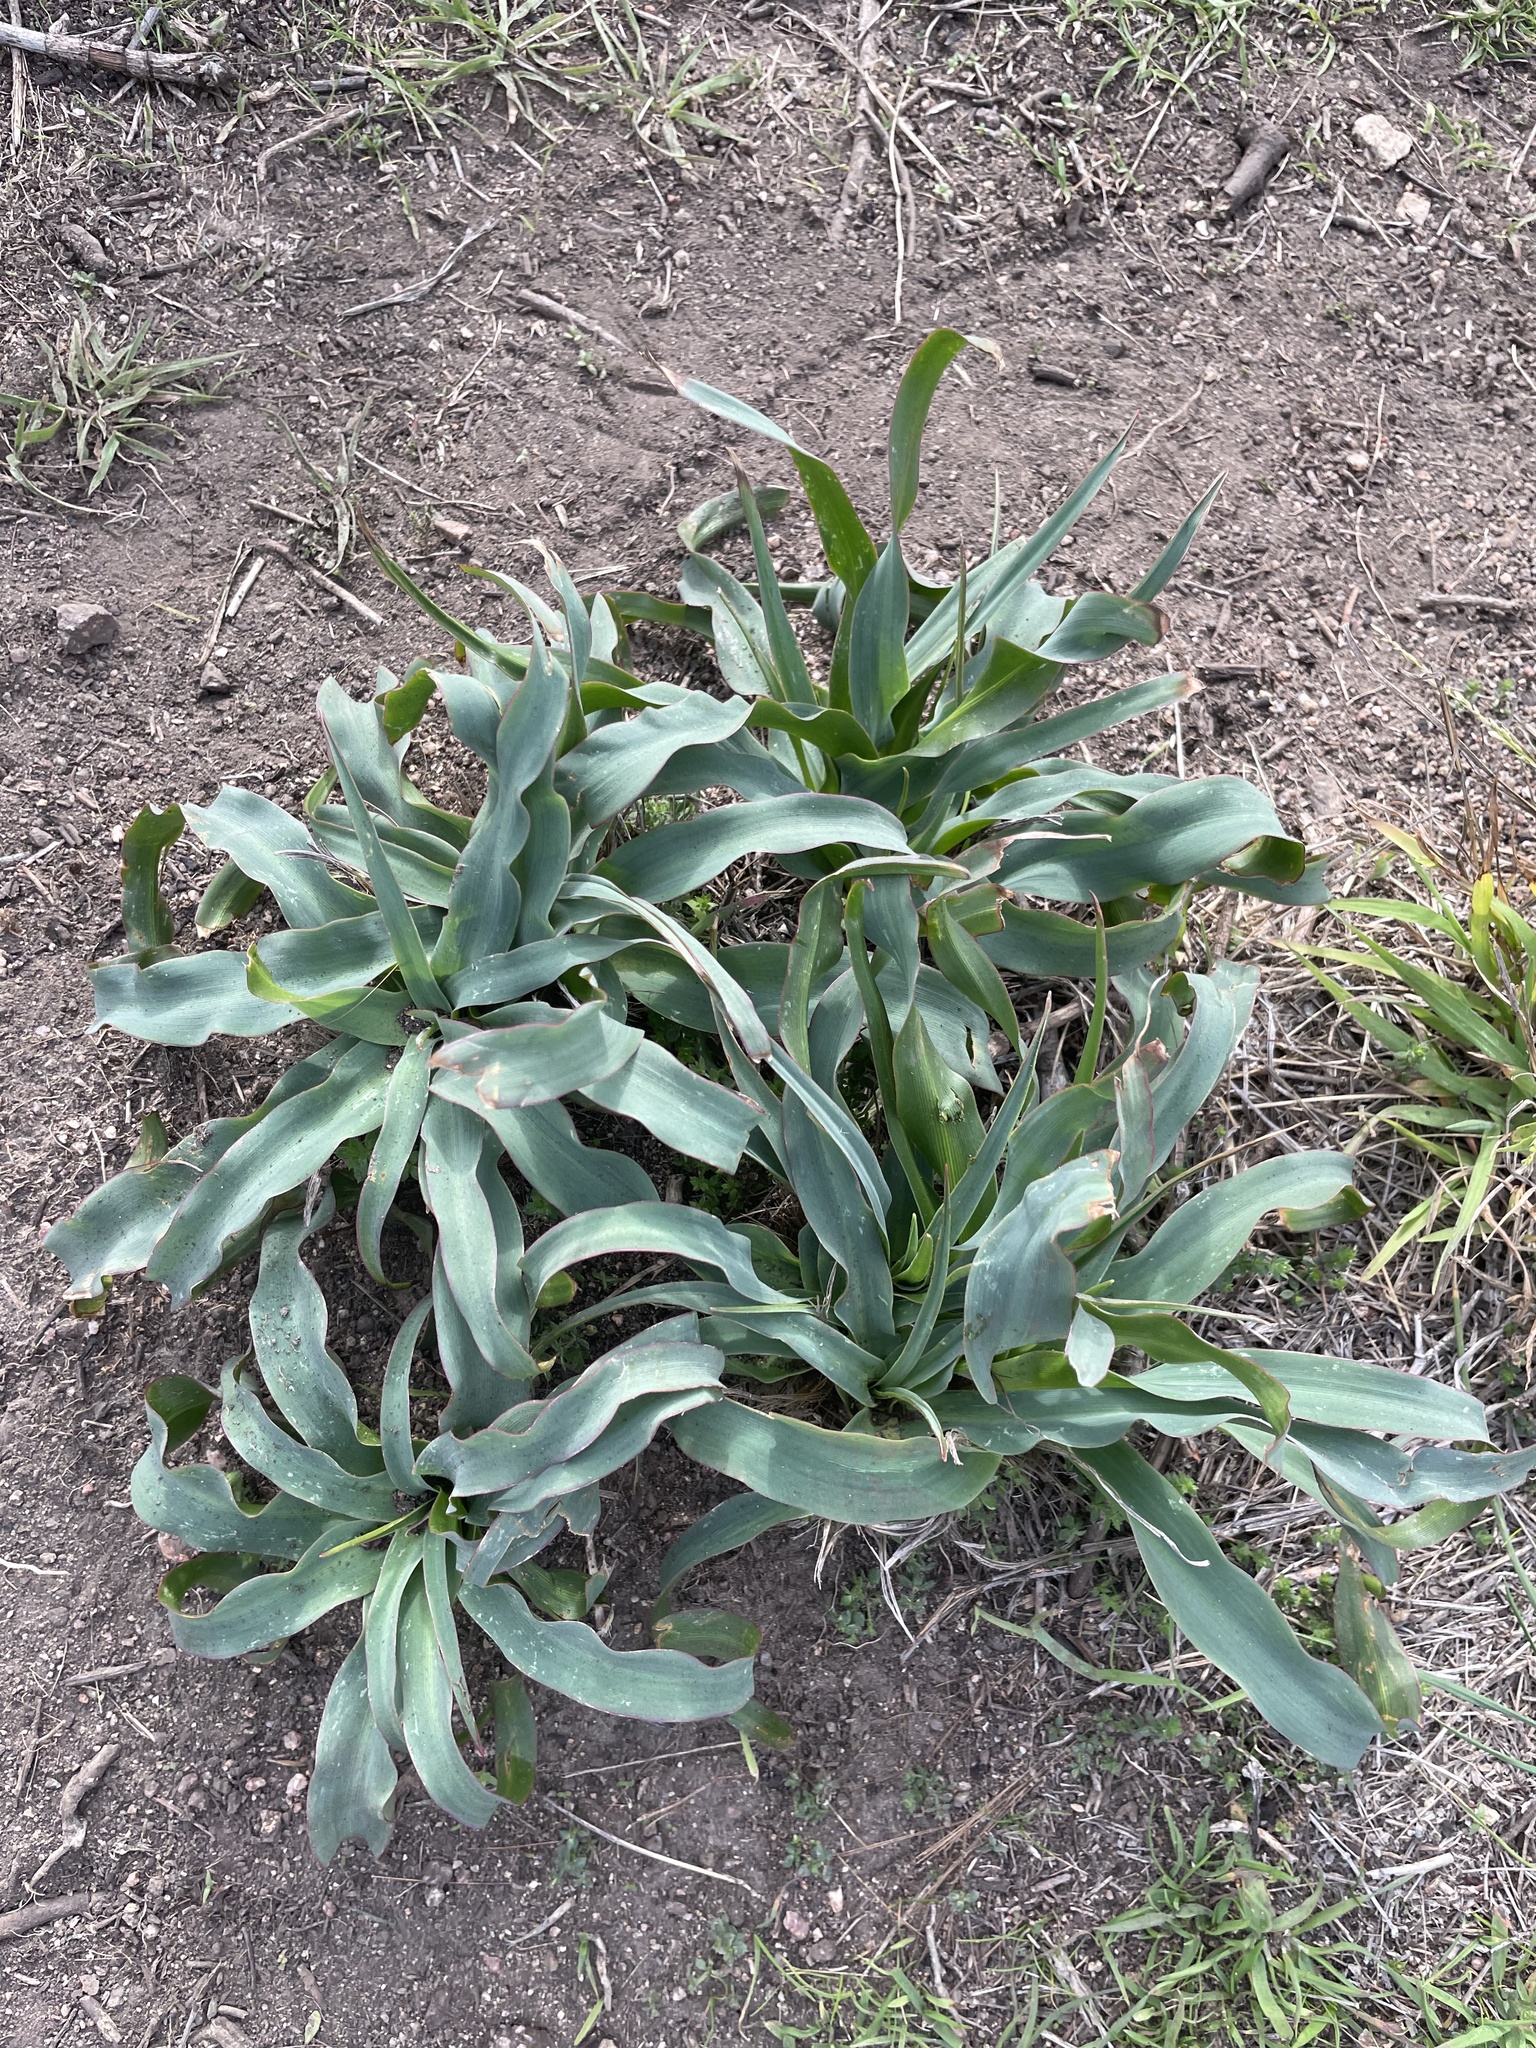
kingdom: Plantae
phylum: Tracheophyta
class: Liliopsida
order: Asparagales
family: Asparagaceae
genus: Chlorogalum
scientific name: Chlorogalum pomeridianum
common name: Amole
